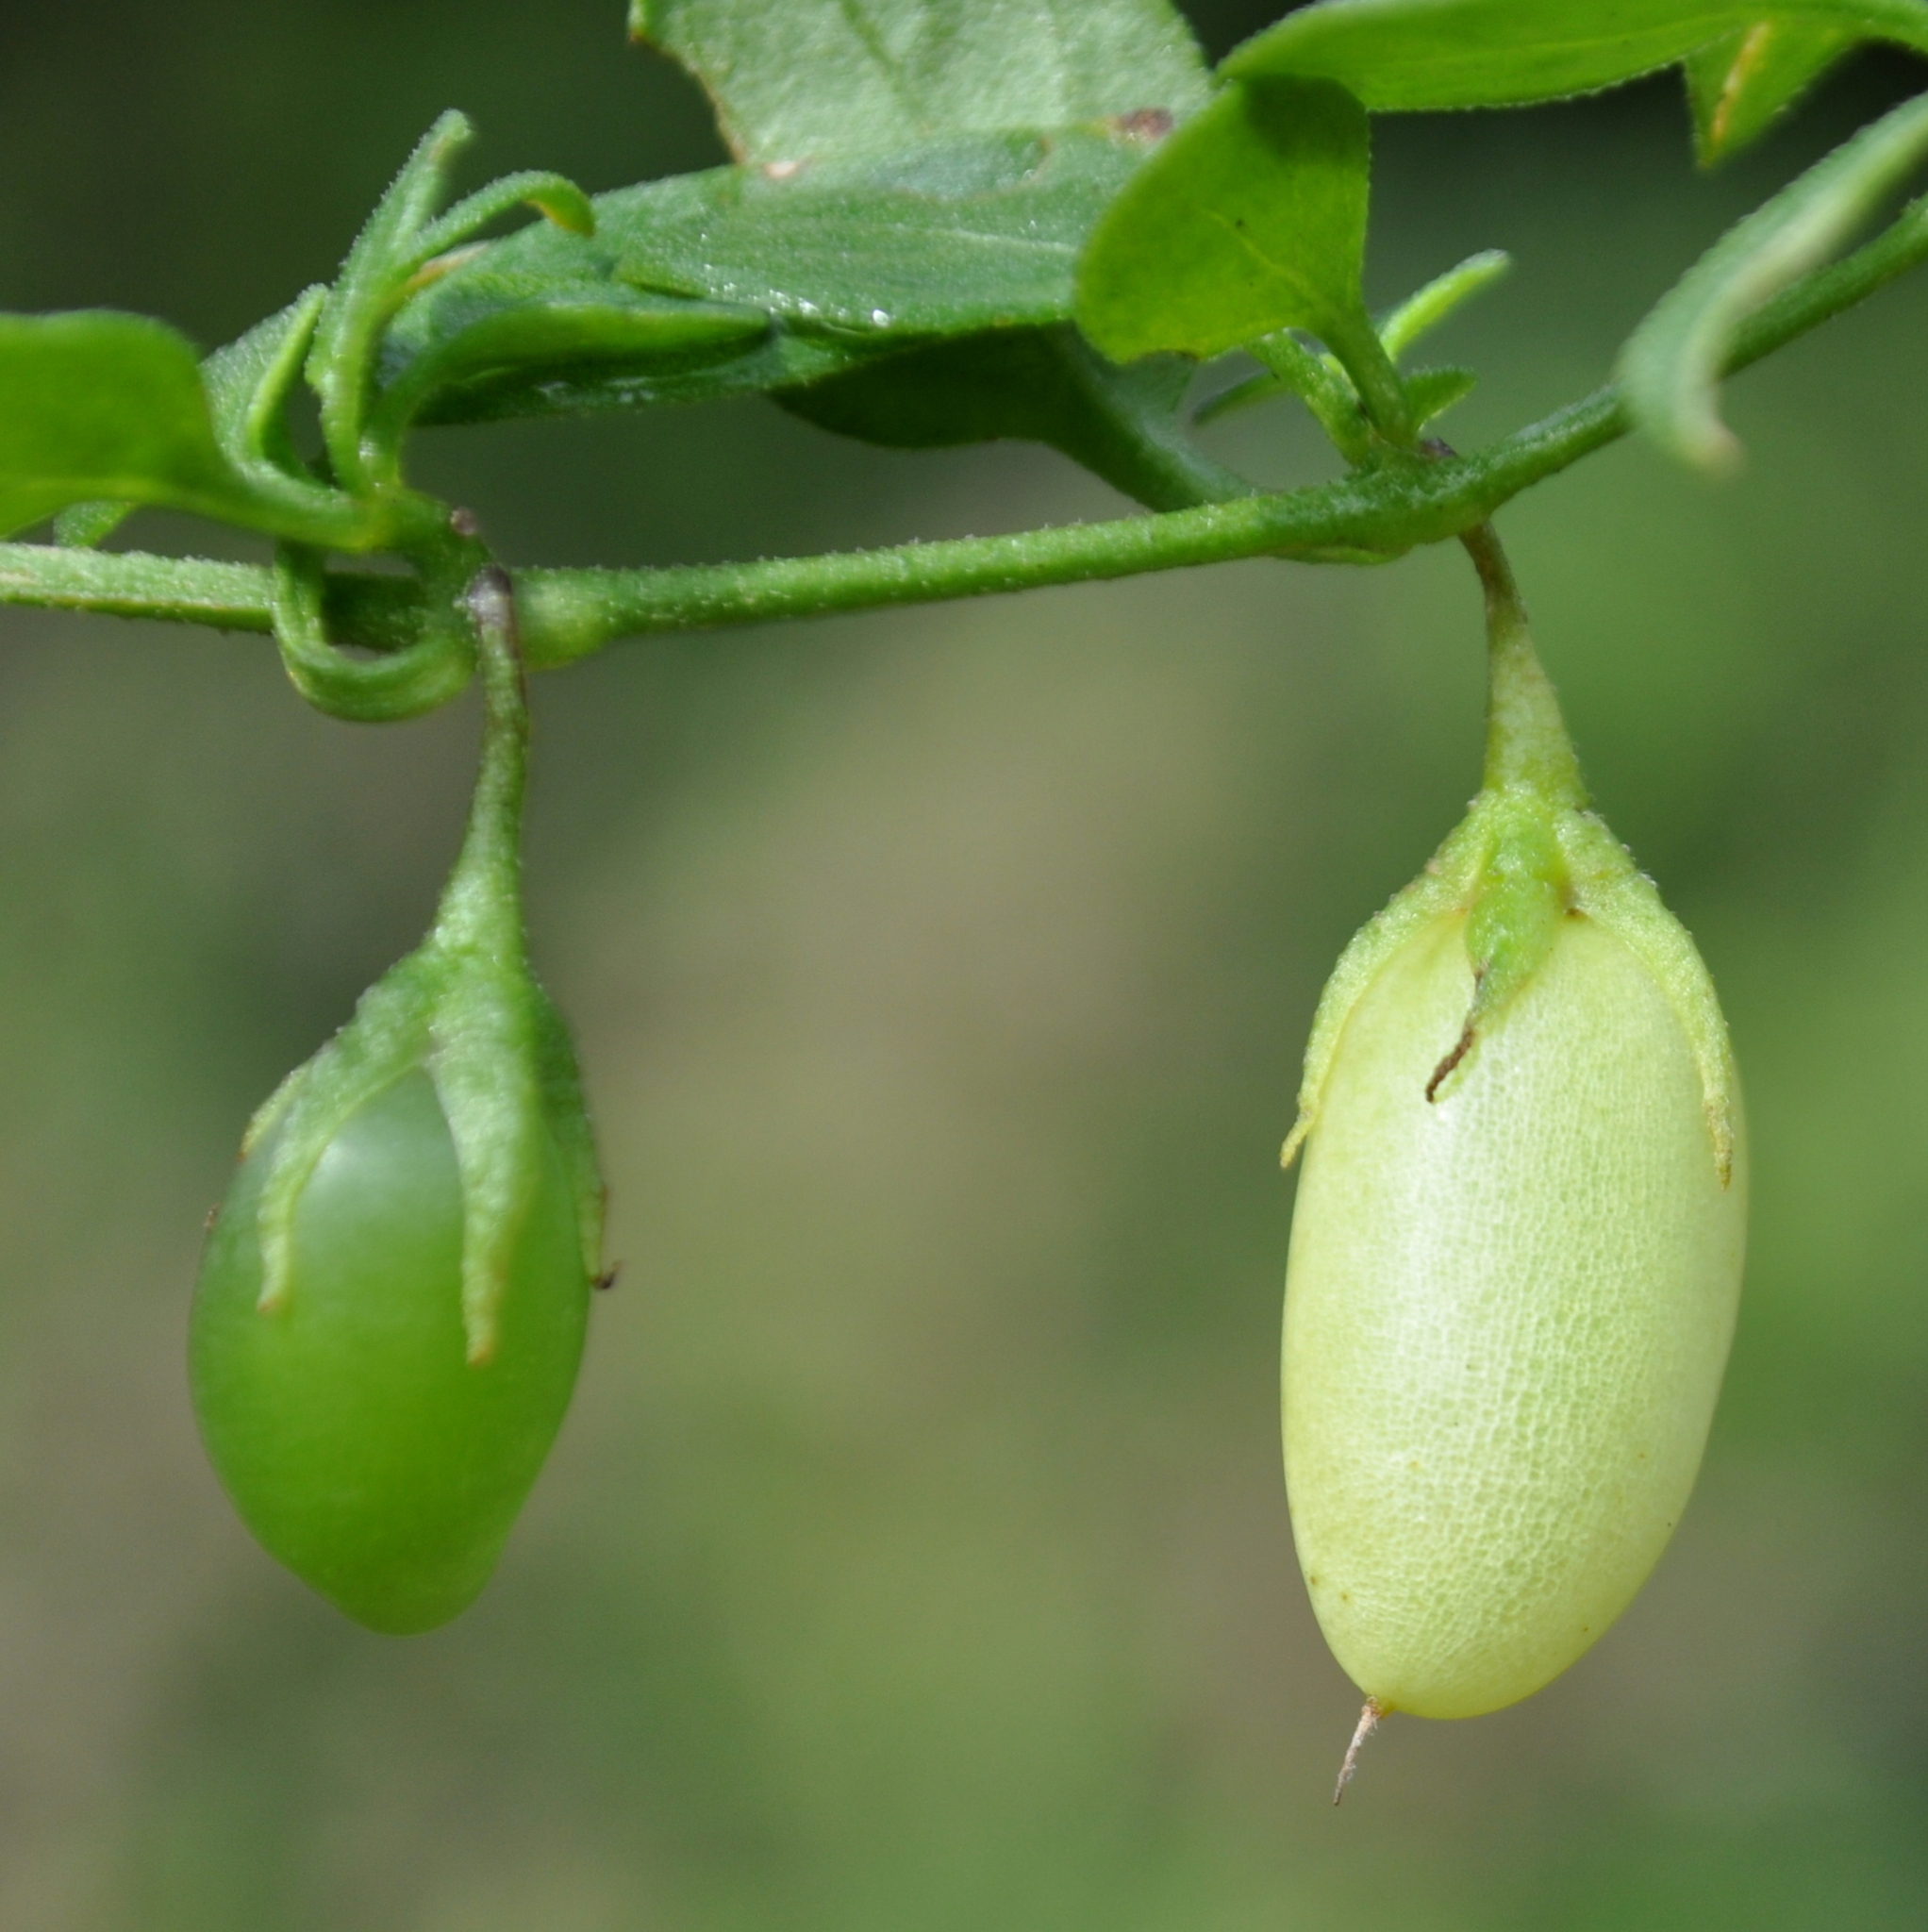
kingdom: Plantae
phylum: Tracheophyta
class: Magnoliopsida
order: Solanales
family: Solanaceae
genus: Salpichroa
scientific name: Salpichroa origanifolia
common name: Lily-of-the-valley-vine
